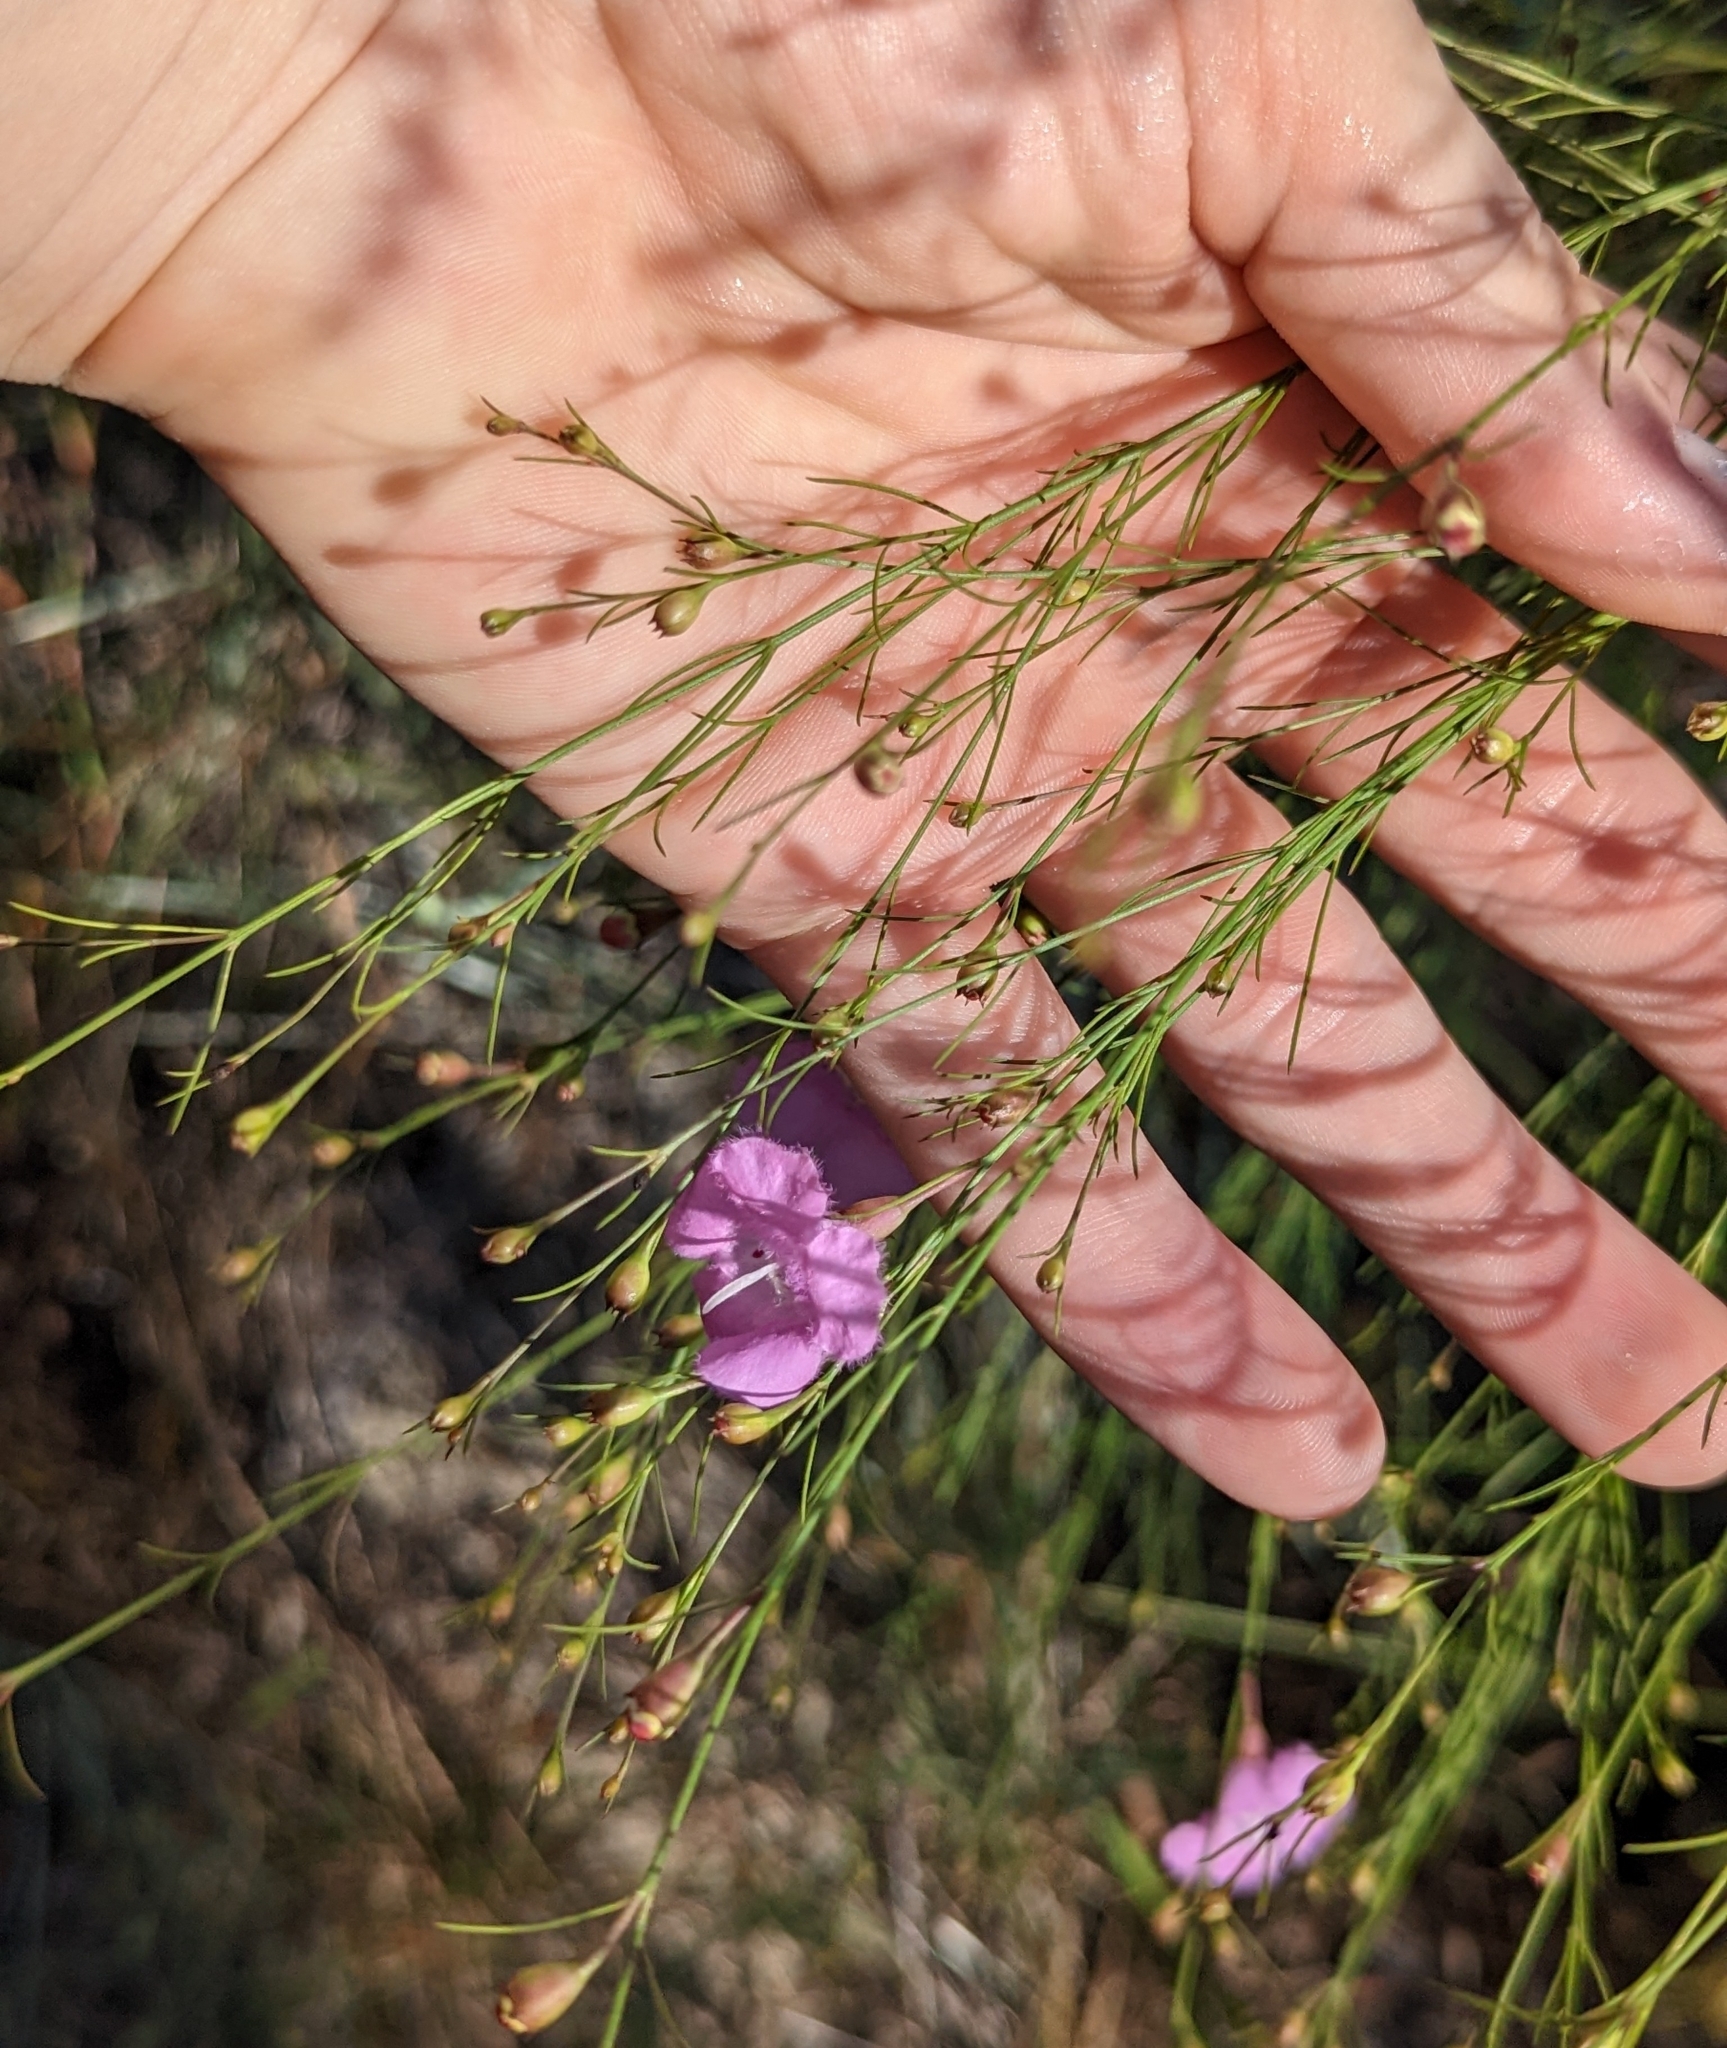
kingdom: Plantae
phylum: Tracheophyta
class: Magnoliopsida
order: Lamiales
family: Orobanchaceae
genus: Agalinis
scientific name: Agalinis plukenetii
